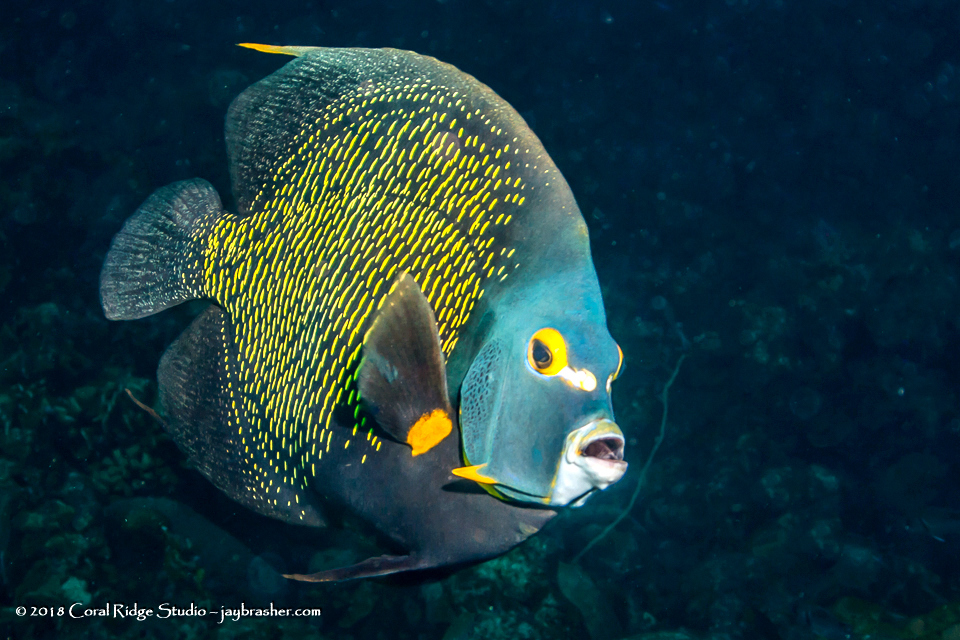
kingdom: Animalia
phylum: Chordata
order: Perciformes
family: Pomacanthidae
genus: Pomacanthus
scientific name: Pomacanthus paru
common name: French angelfish
